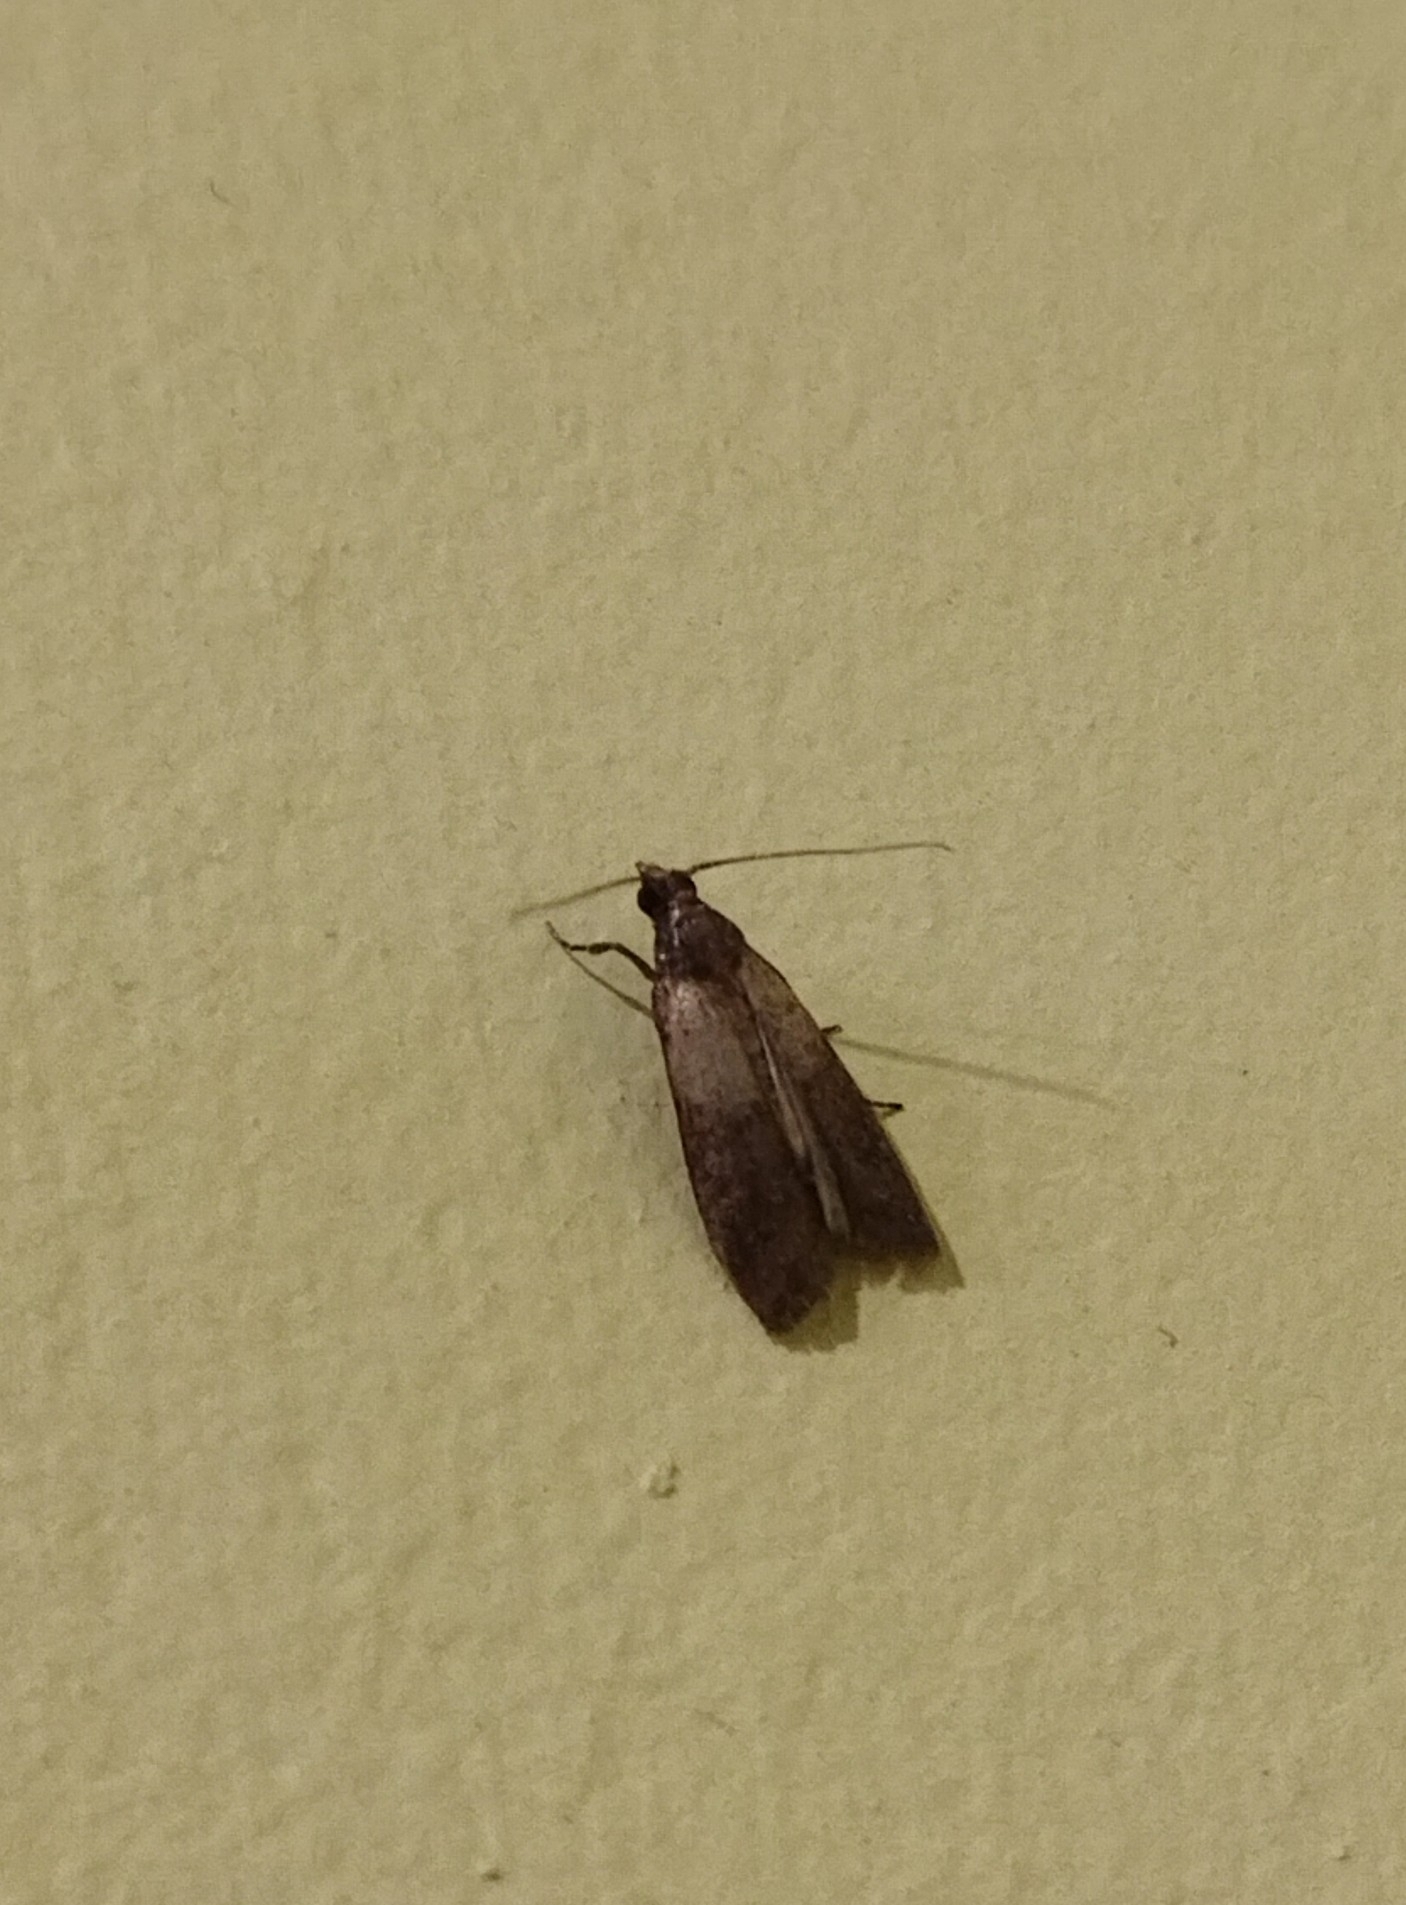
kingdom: Animalia
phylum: Arthropoda
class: Insecta
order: Lepidoptera
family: Pyralidae
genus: Plodia
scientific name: Plodia interpunctella
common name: Indian meal moth
